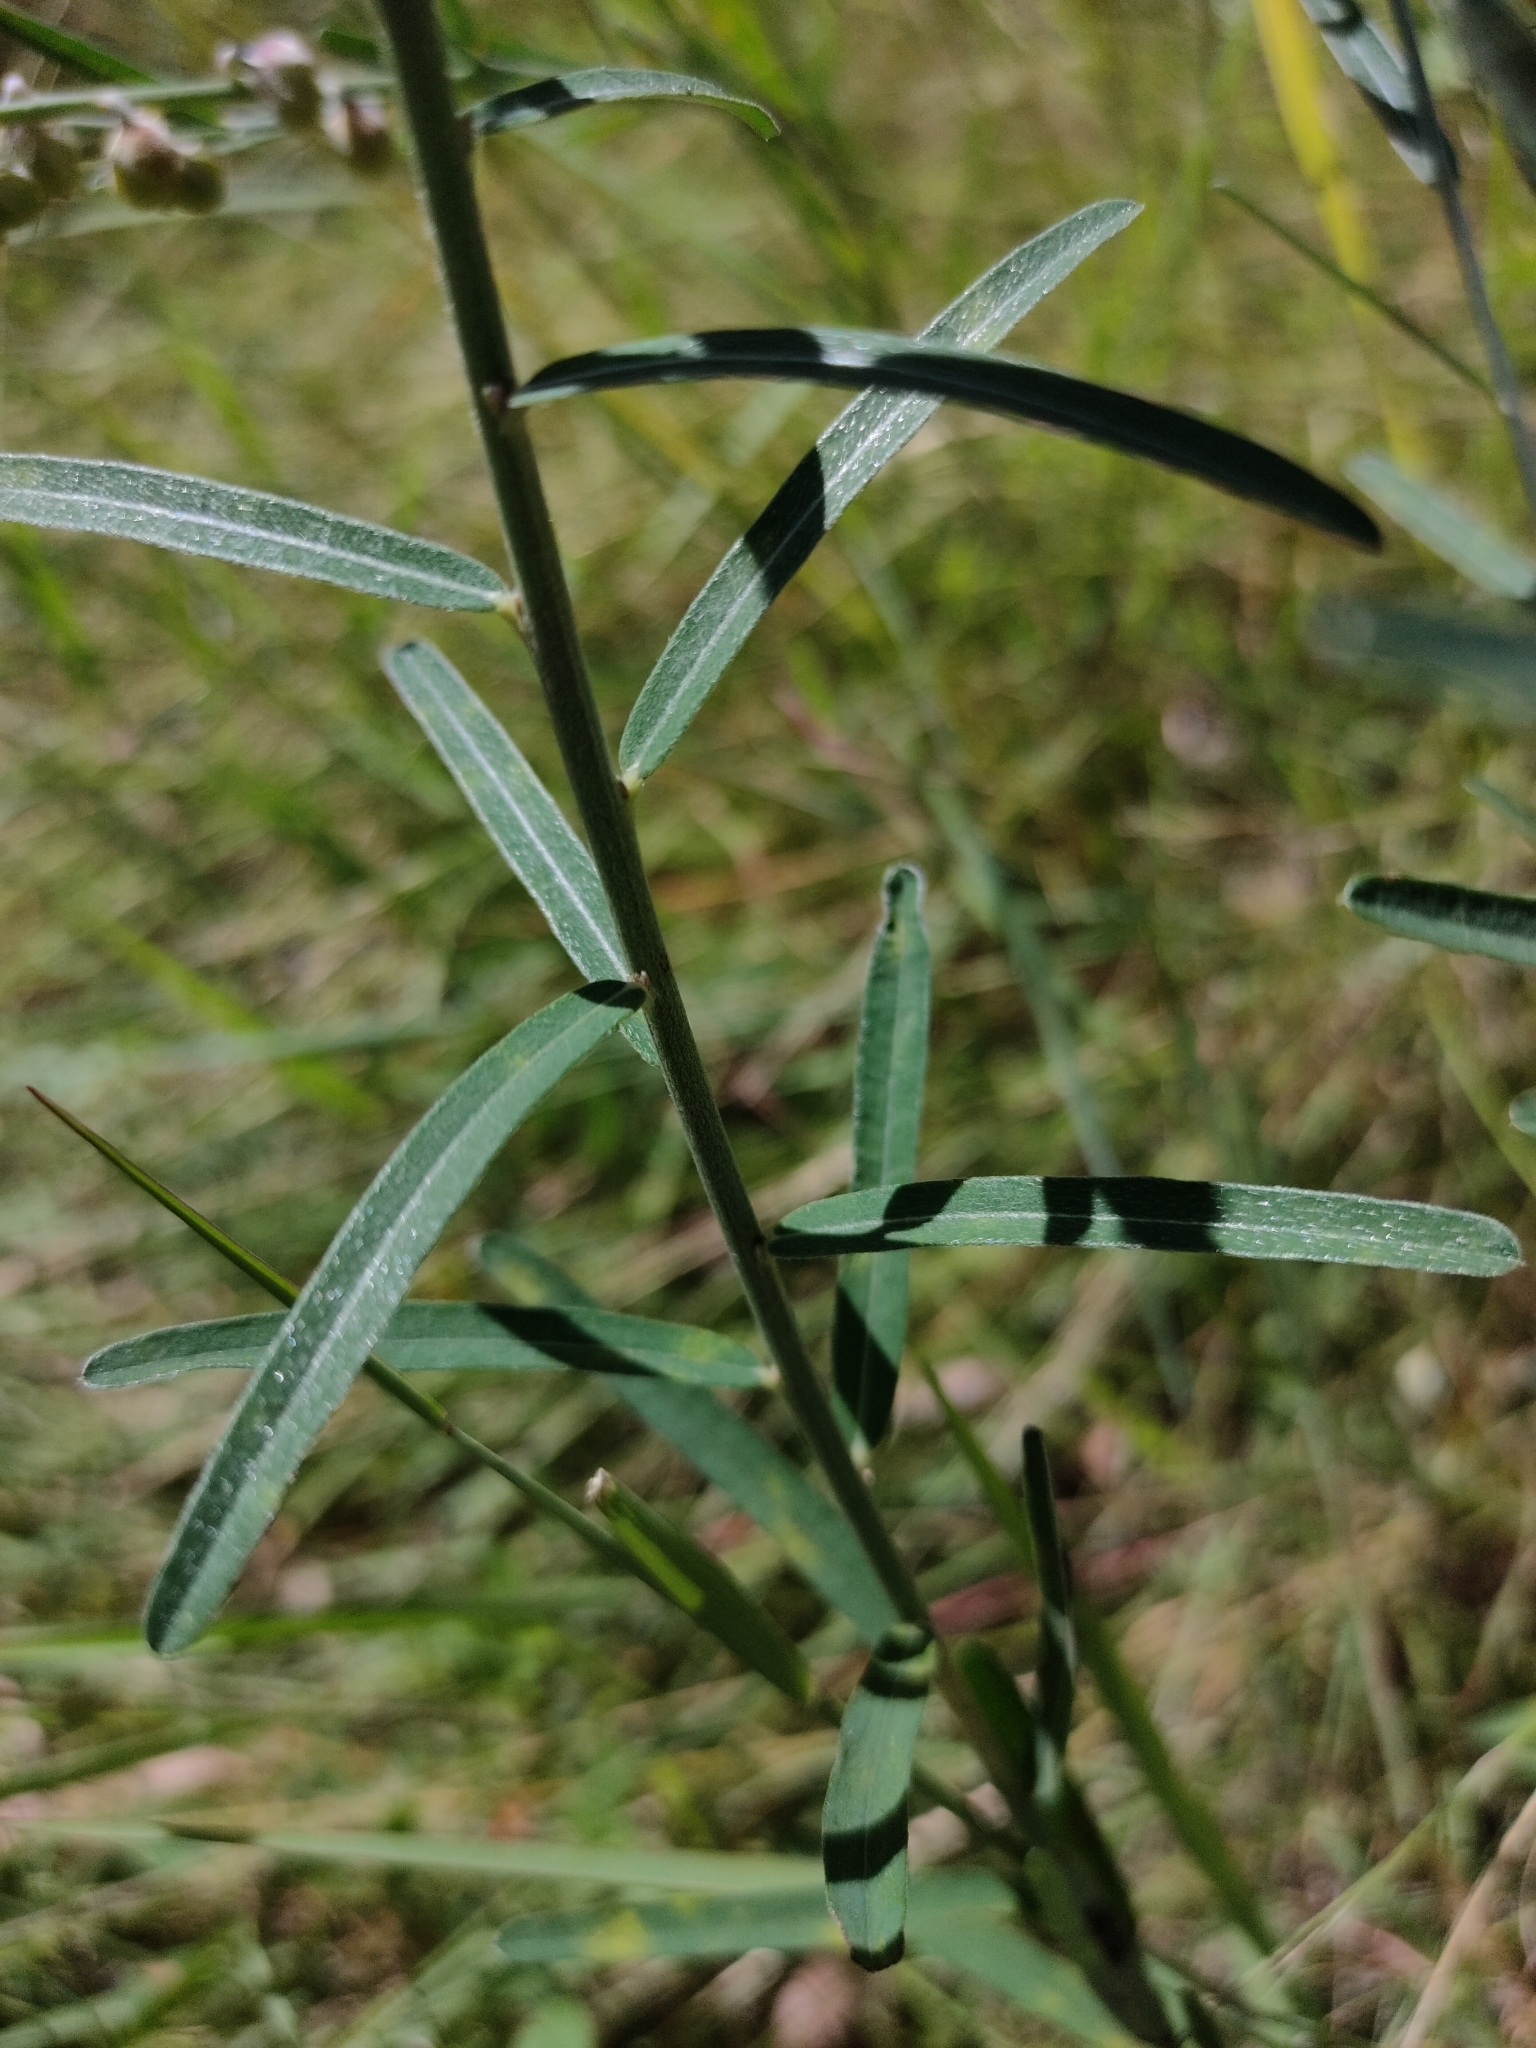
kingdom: Plantae
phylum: Tracheophyta
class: Magnoliopsida
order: Fabales
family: Fabaceae
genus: Crotalaria
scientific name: Crotalaria montana
